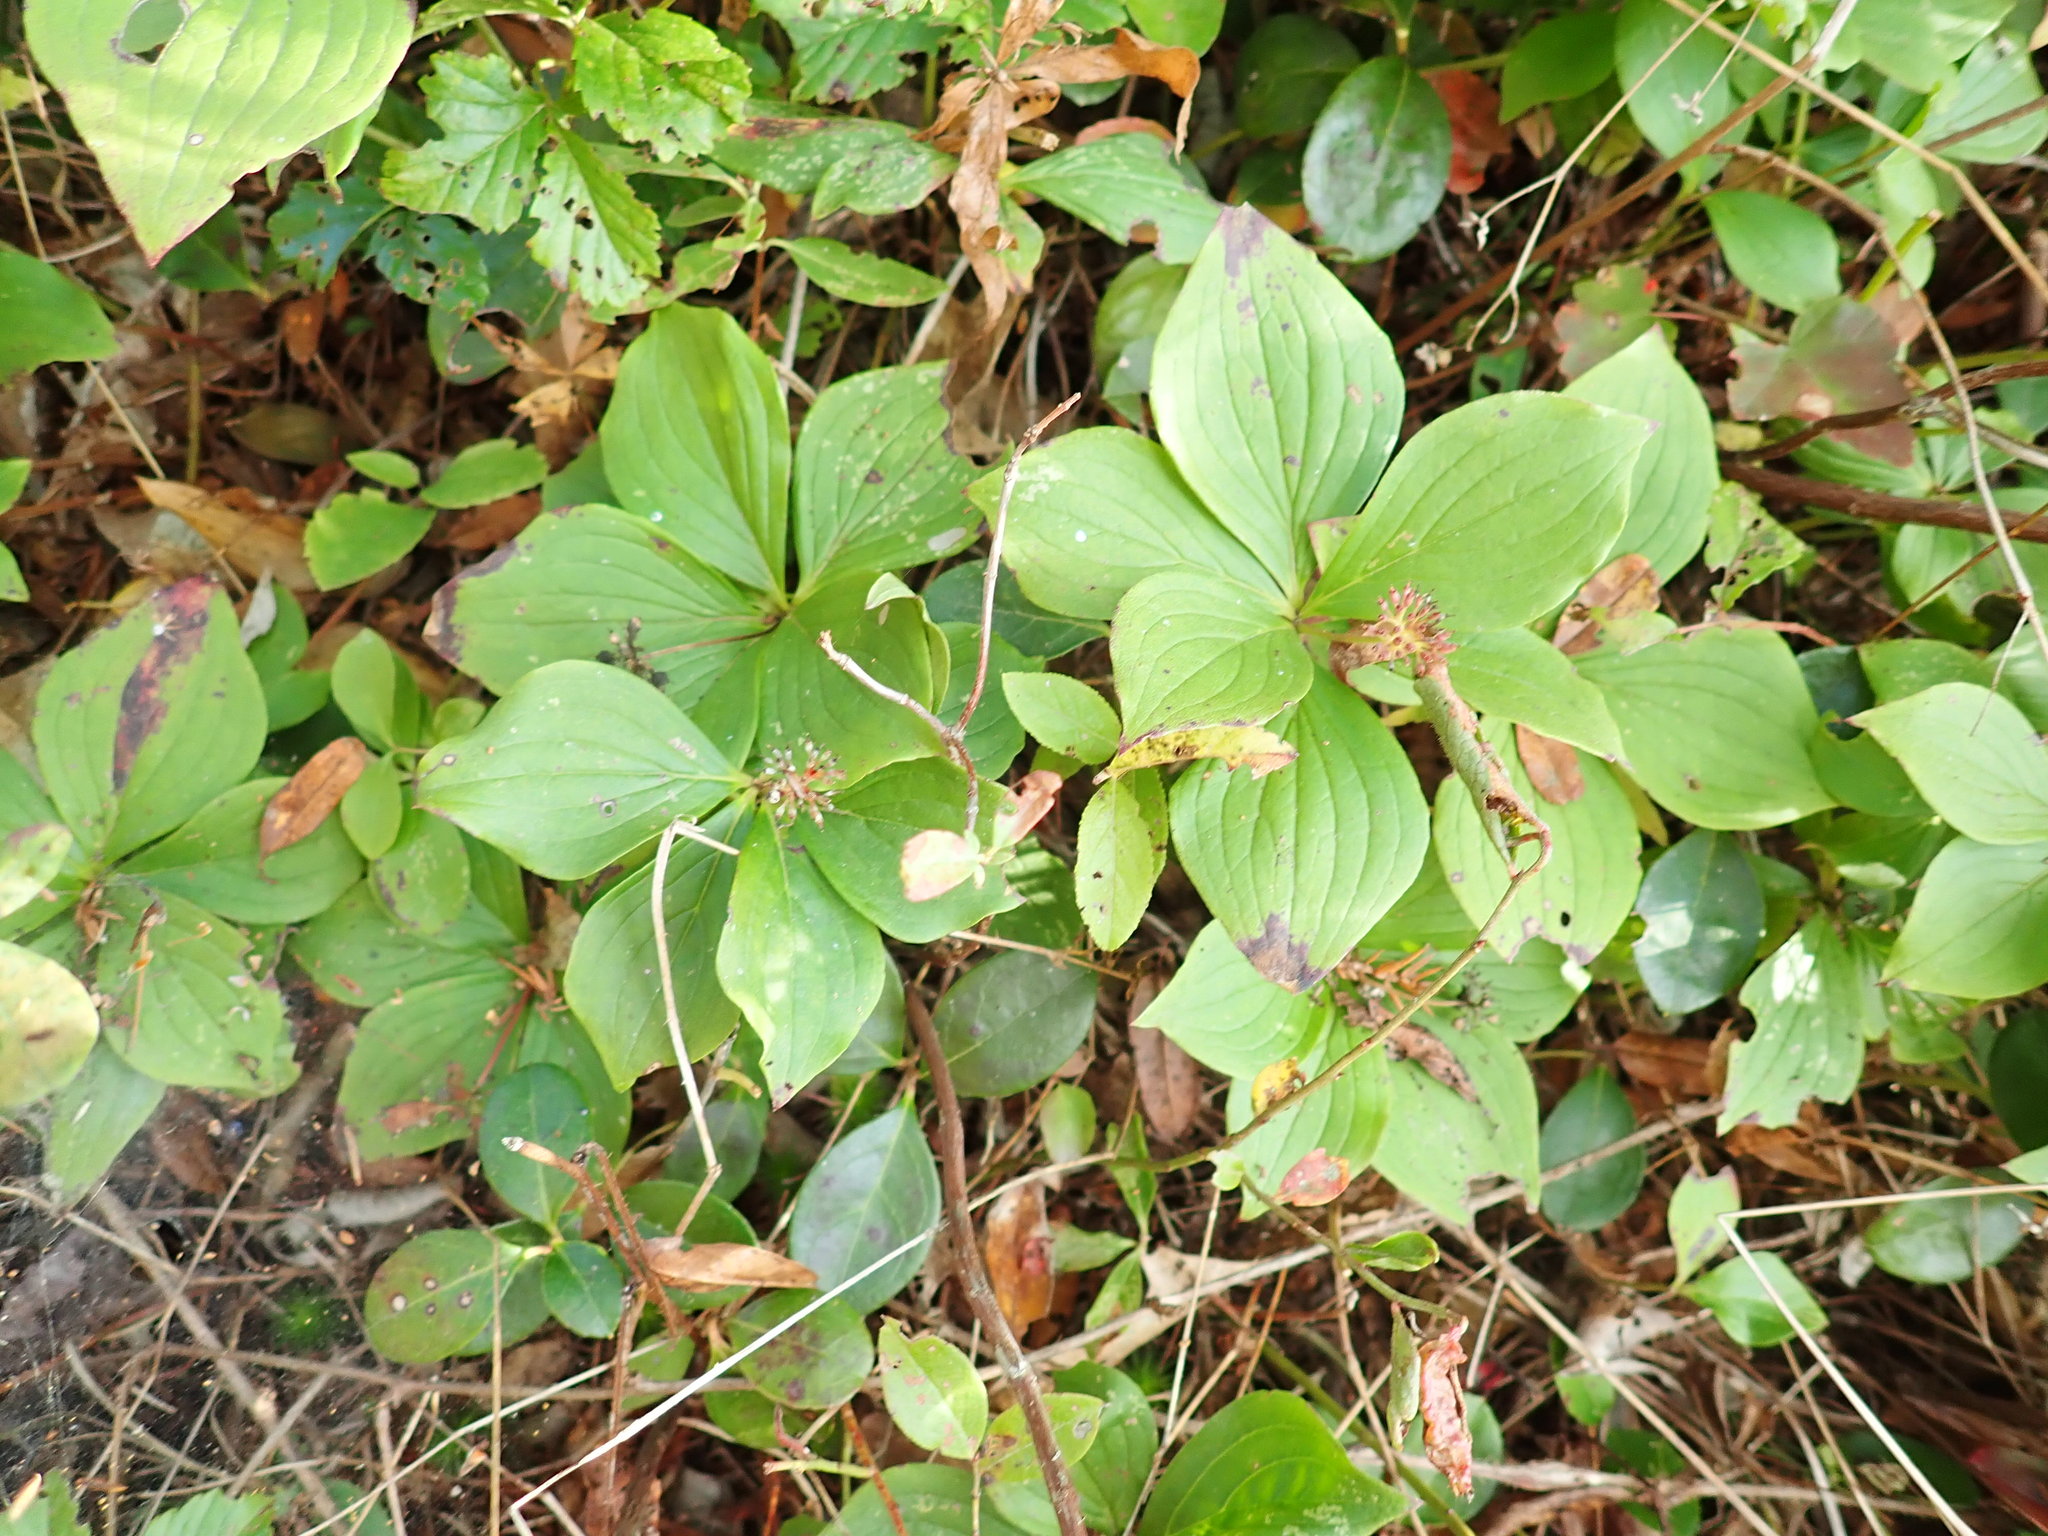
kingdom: Plantae
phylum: Tracheophyta
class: Magnoliopsida
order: Cornales
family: Cornaceae
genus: Cornus
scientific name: Cornus canadensis
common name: Creeping dogwood
